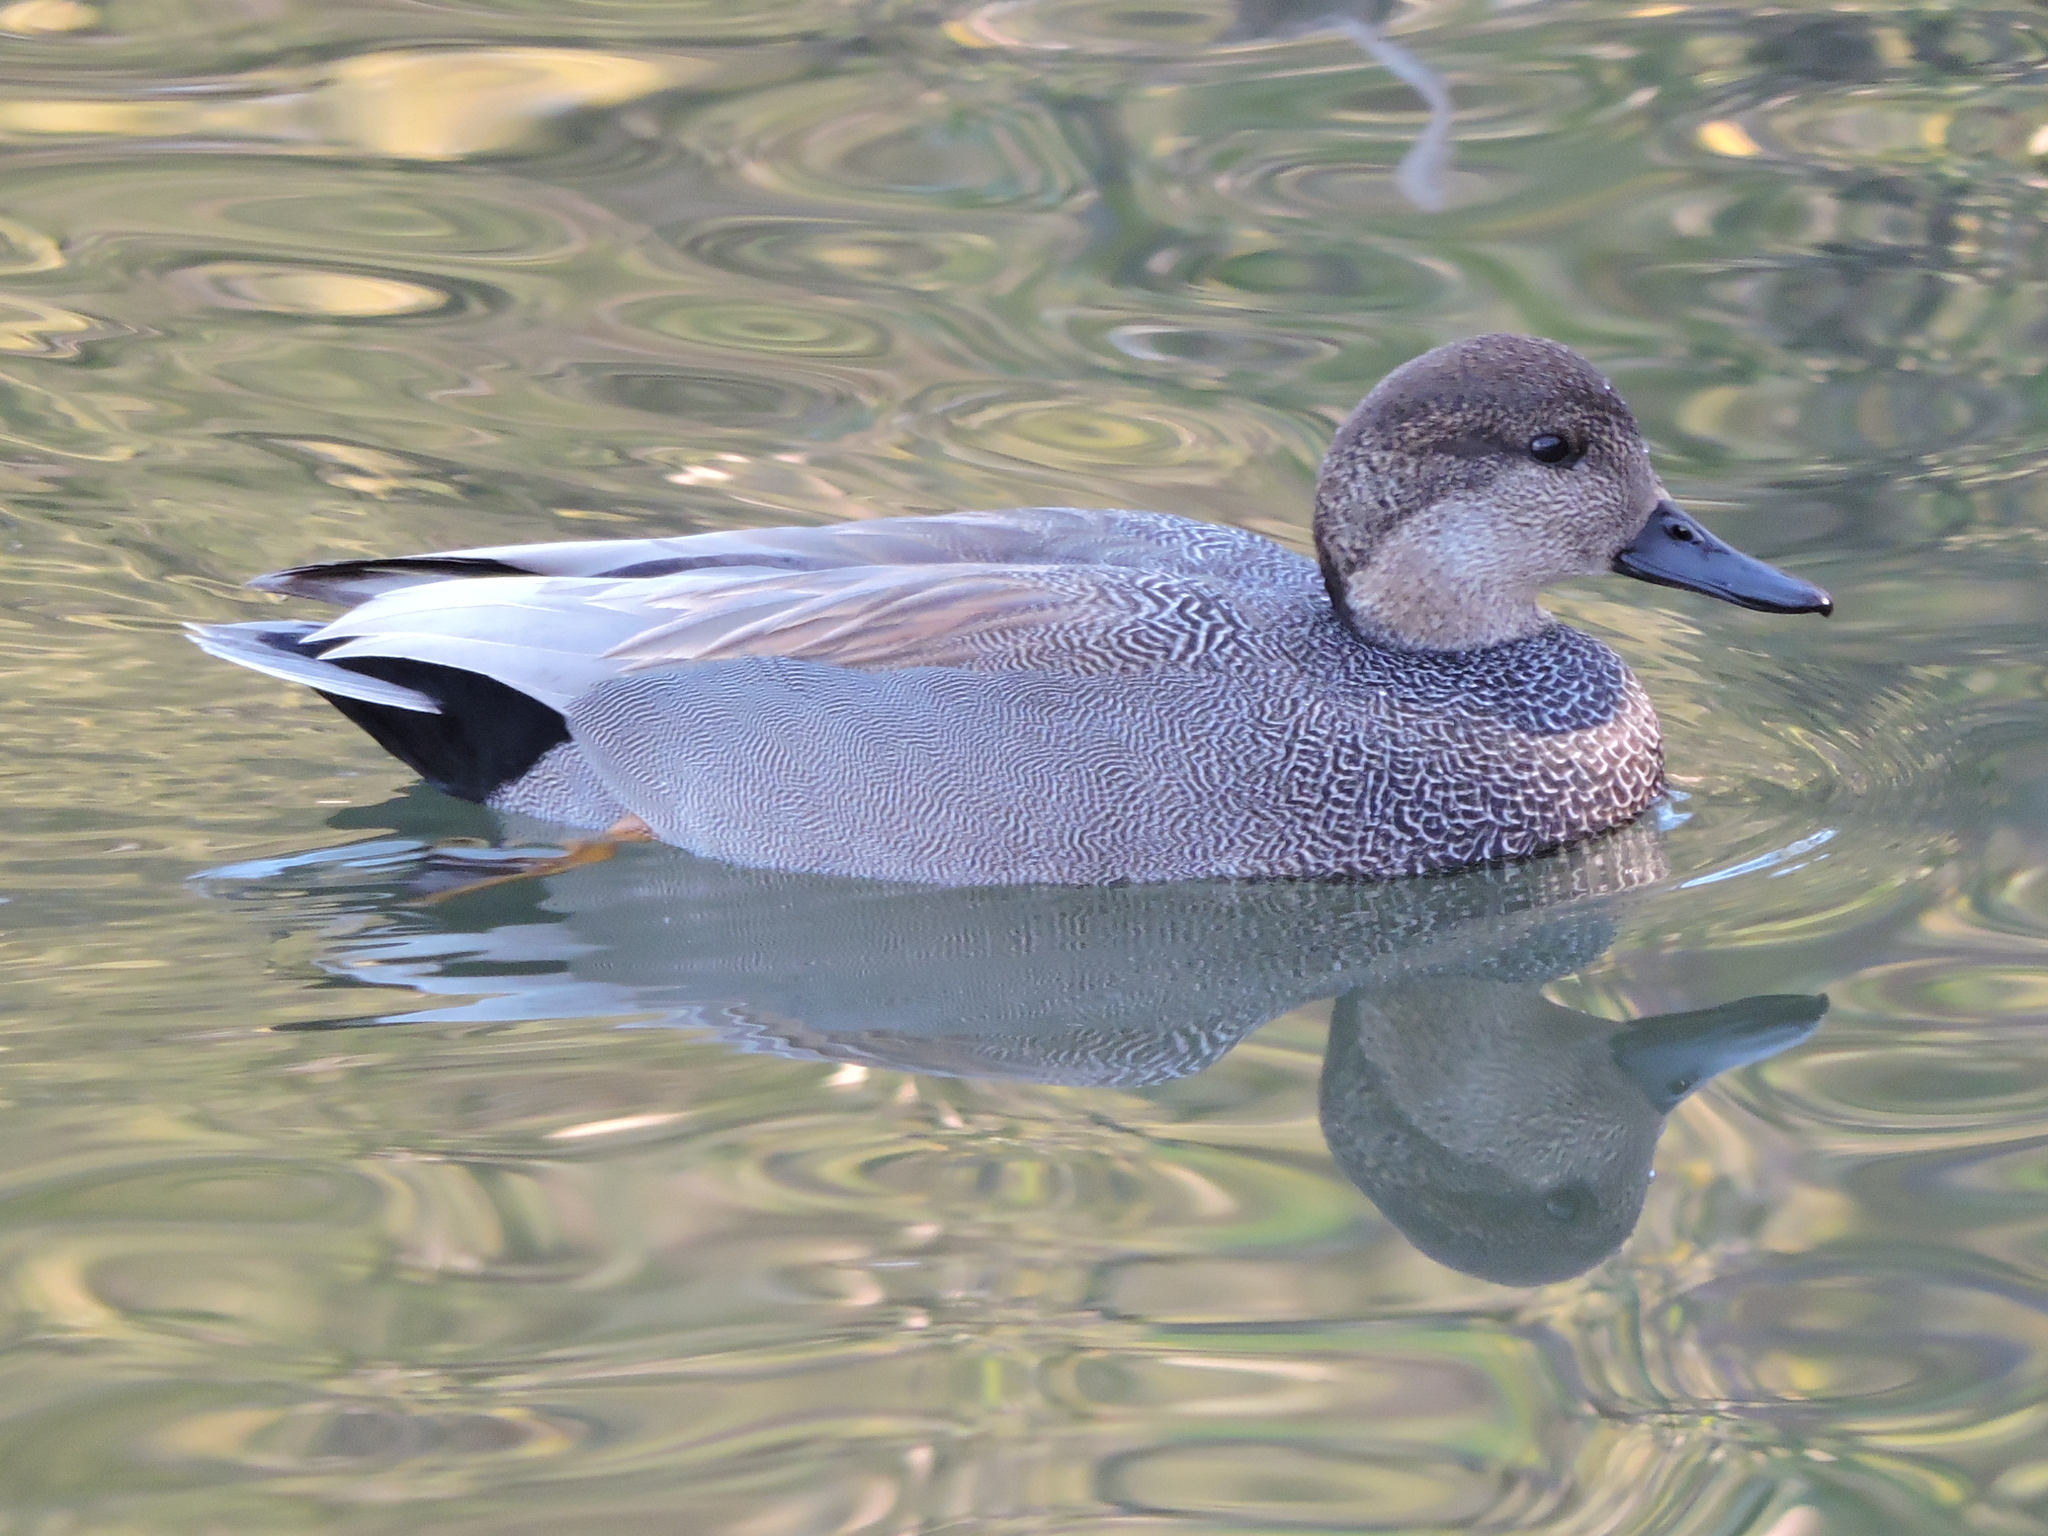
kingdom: Animalia
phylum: Chordata
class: Aves
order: Anseriformes
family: Anatidae
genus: Mareca
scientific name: Mareca strepera
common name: Gadwall
